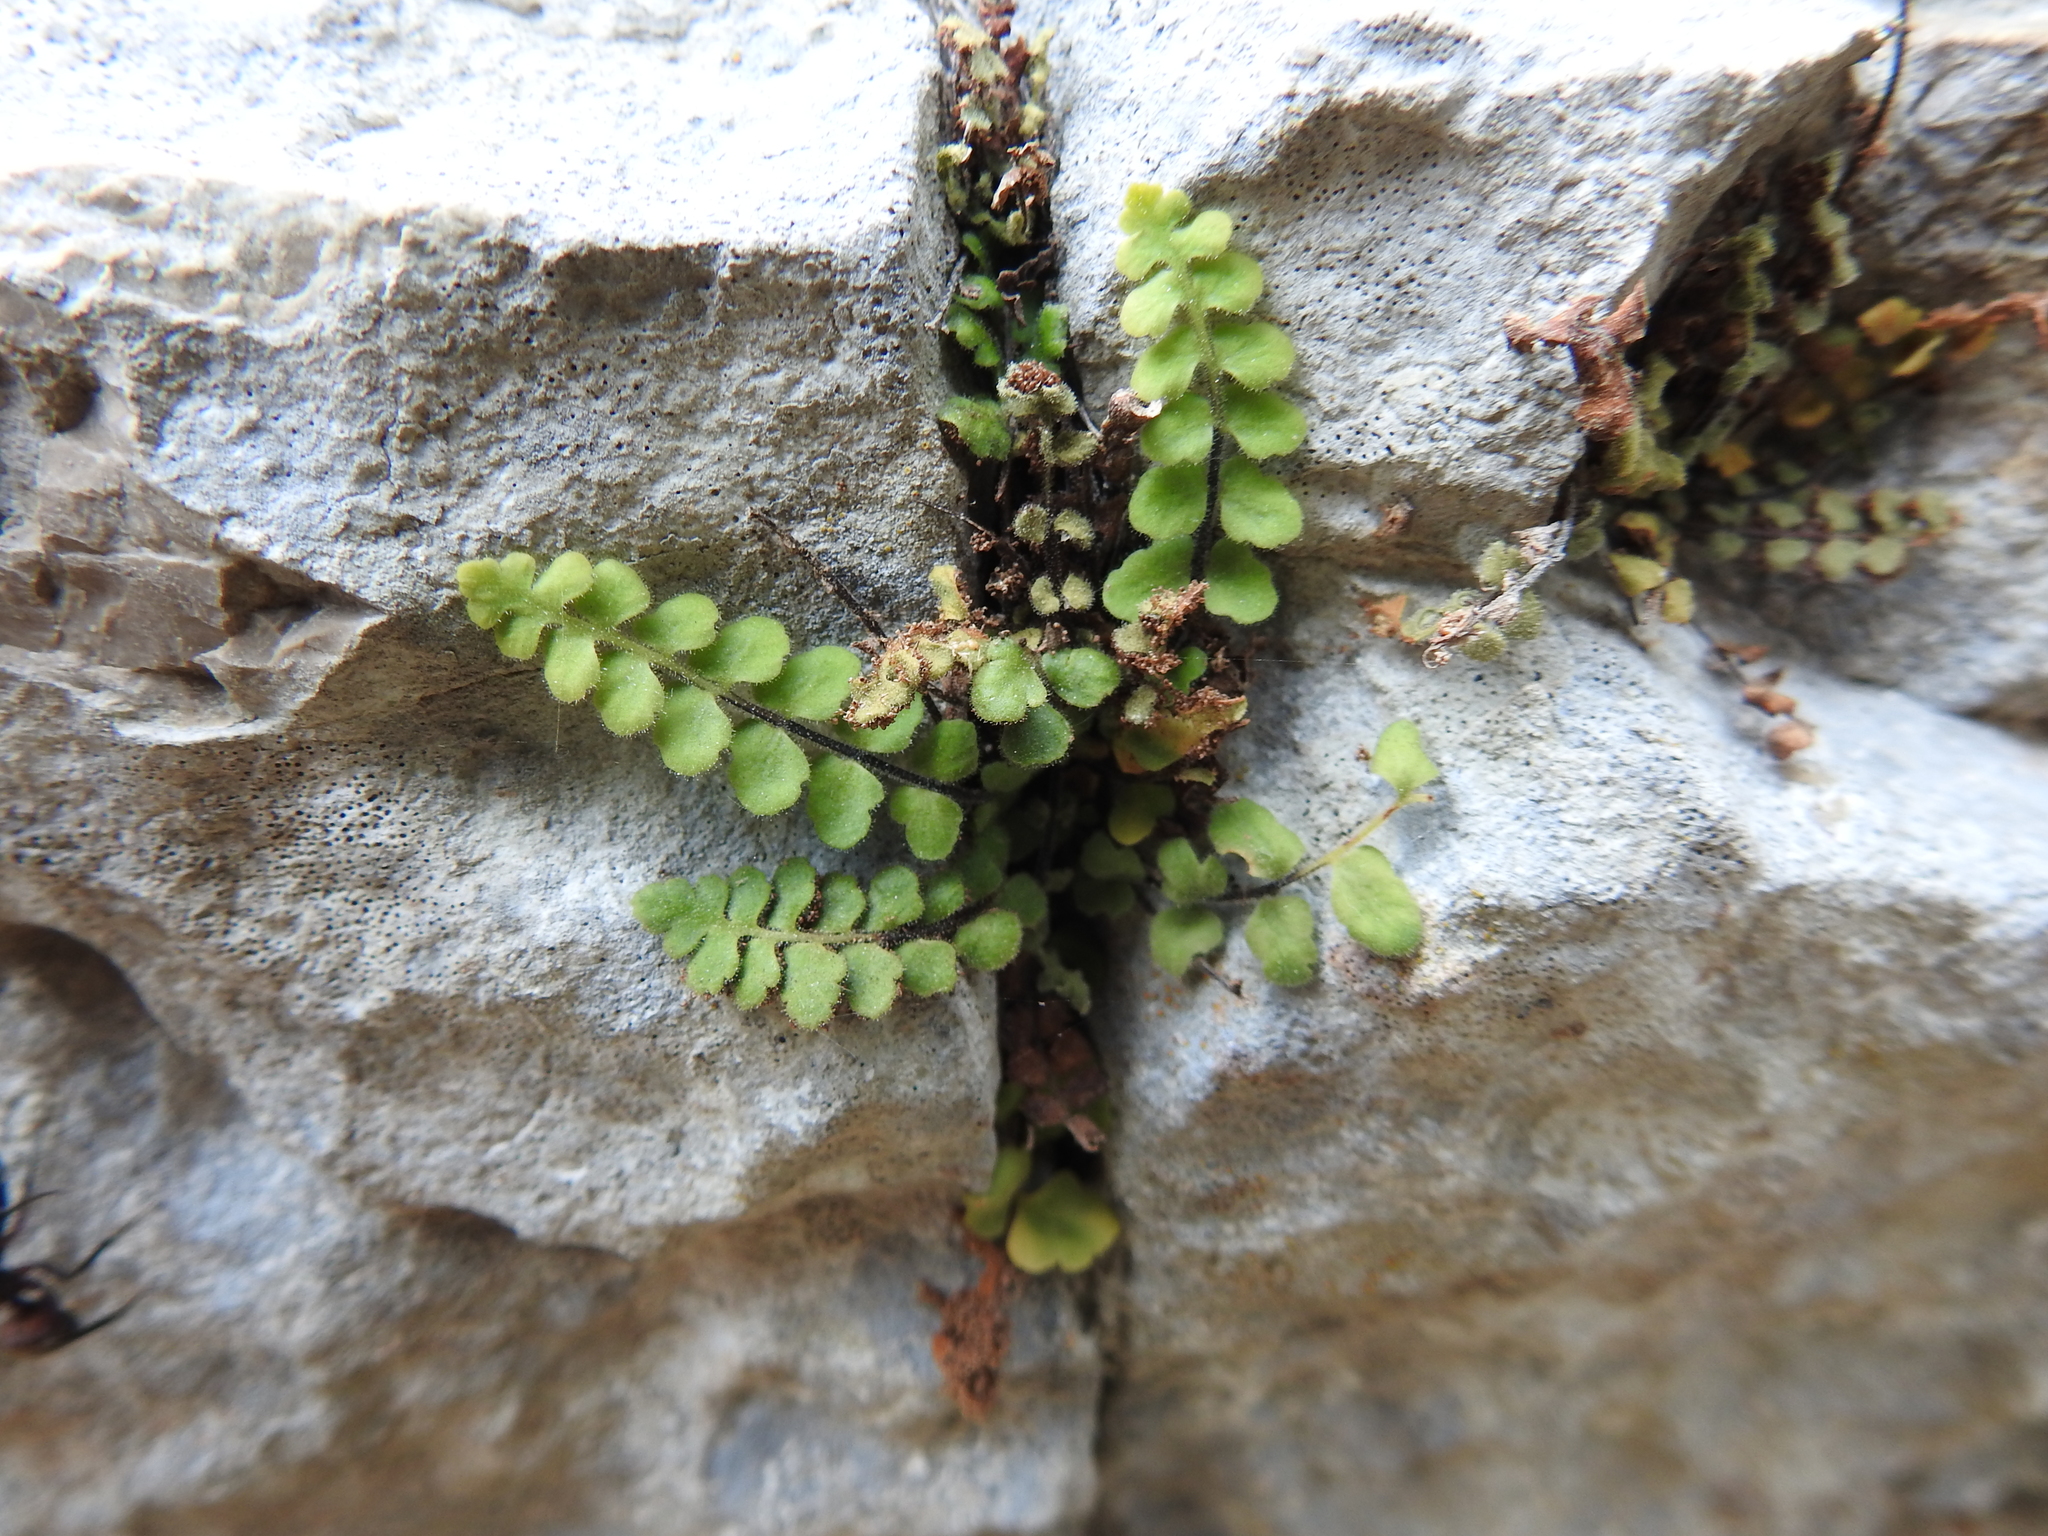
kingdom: Plantae
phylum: Tracheophyta
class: Polypodiopsida
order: Polypodiales
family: Aspleniaceae
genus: Asplenium
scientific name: Asplenium petrarchae
